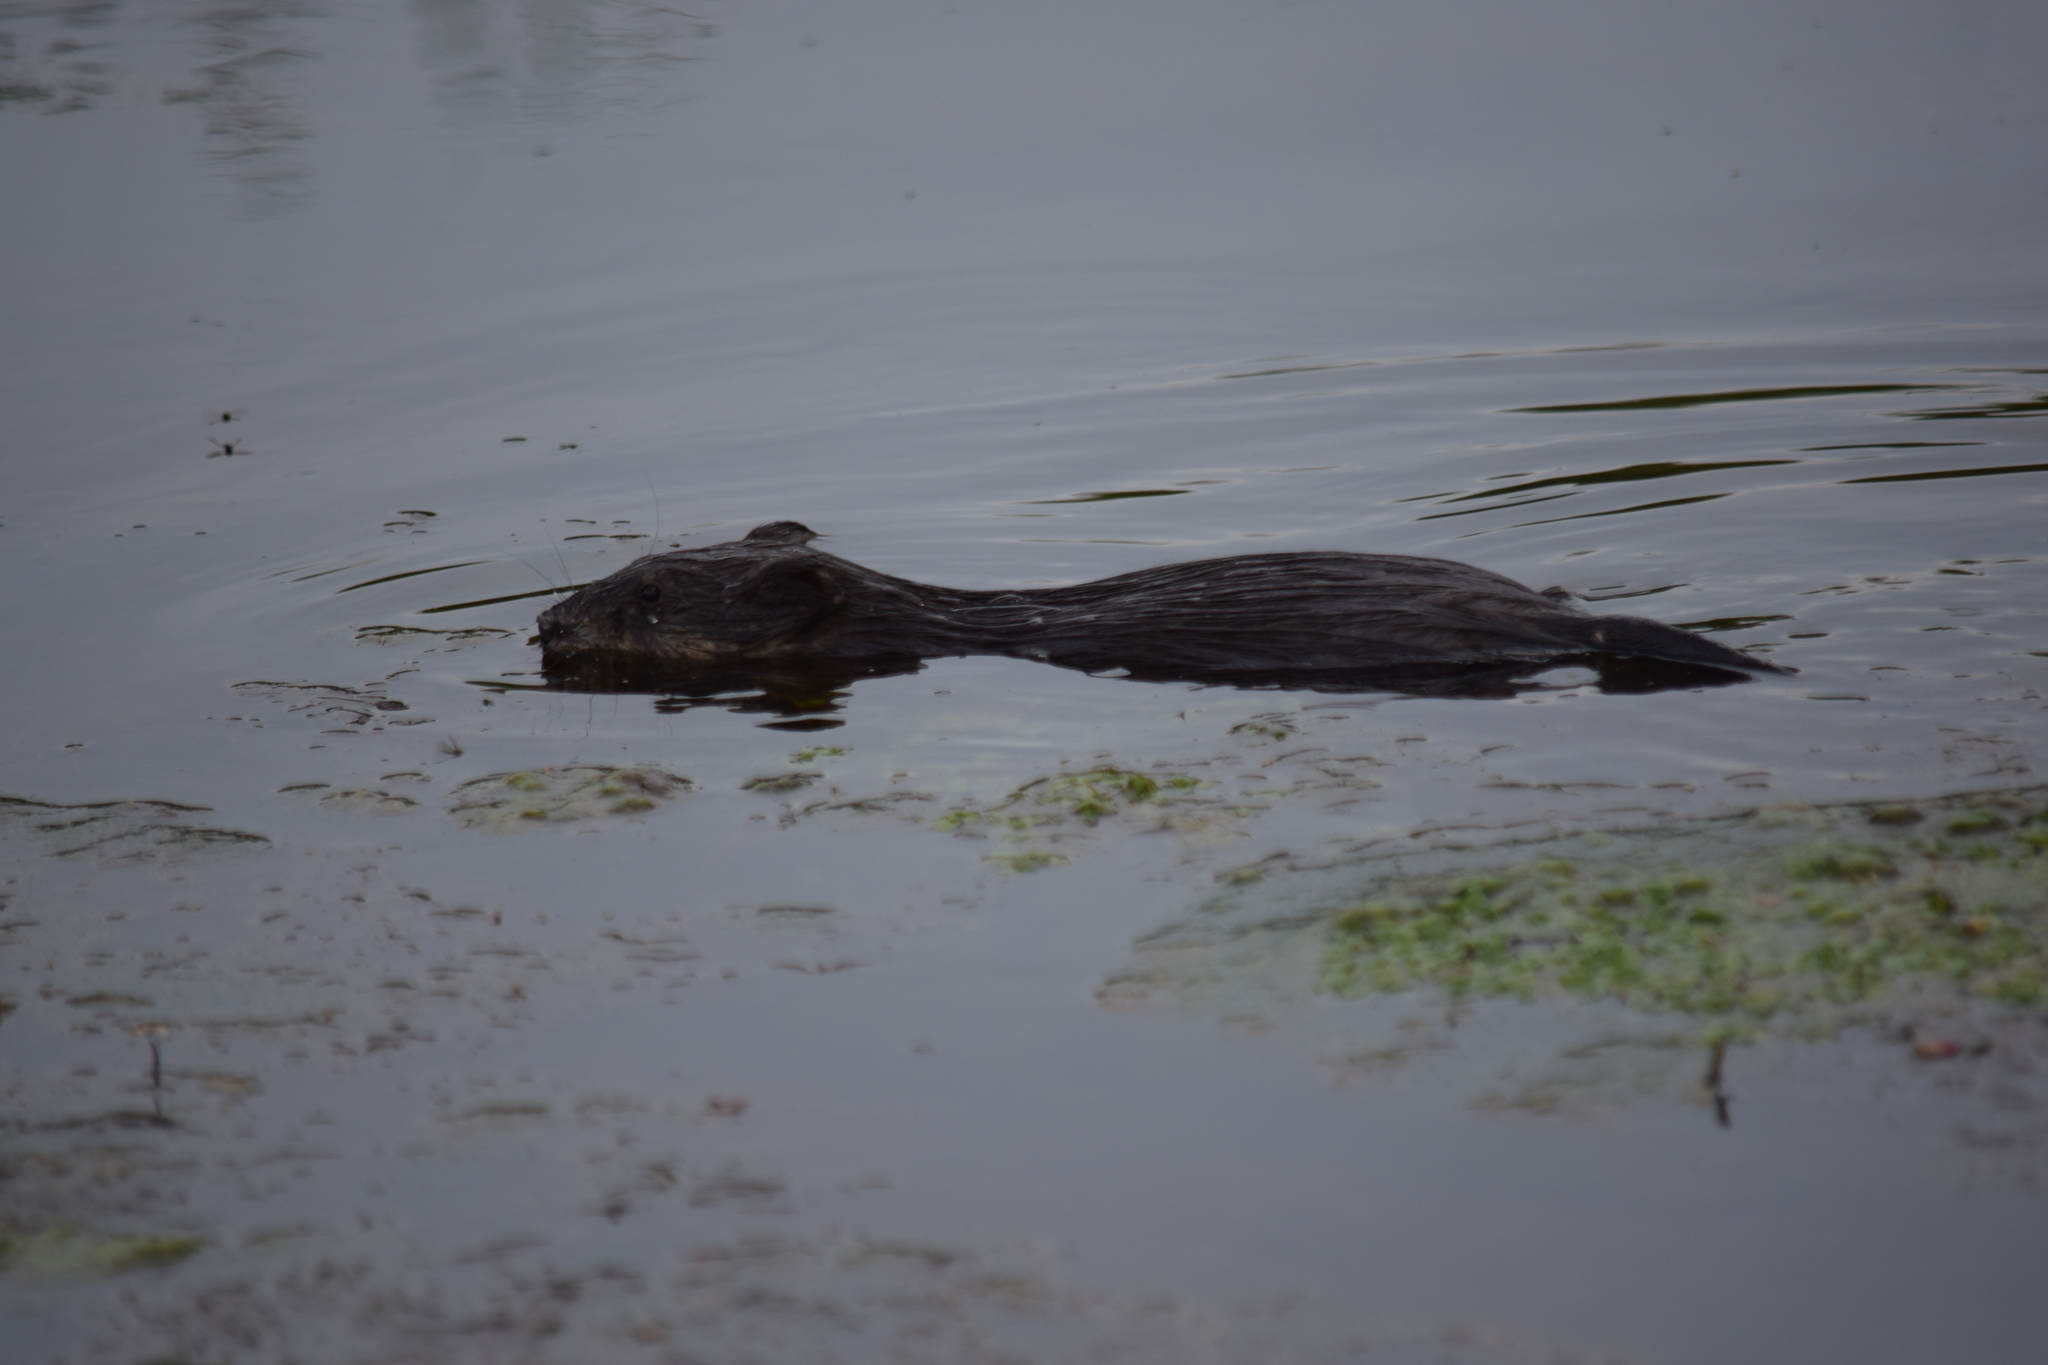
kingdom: Animalia
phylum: Chordata
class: Mammalia
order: Rodentia
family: Cricetidae
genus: Ondatra
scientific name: Ondatra zibethicus
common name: Muskrat
